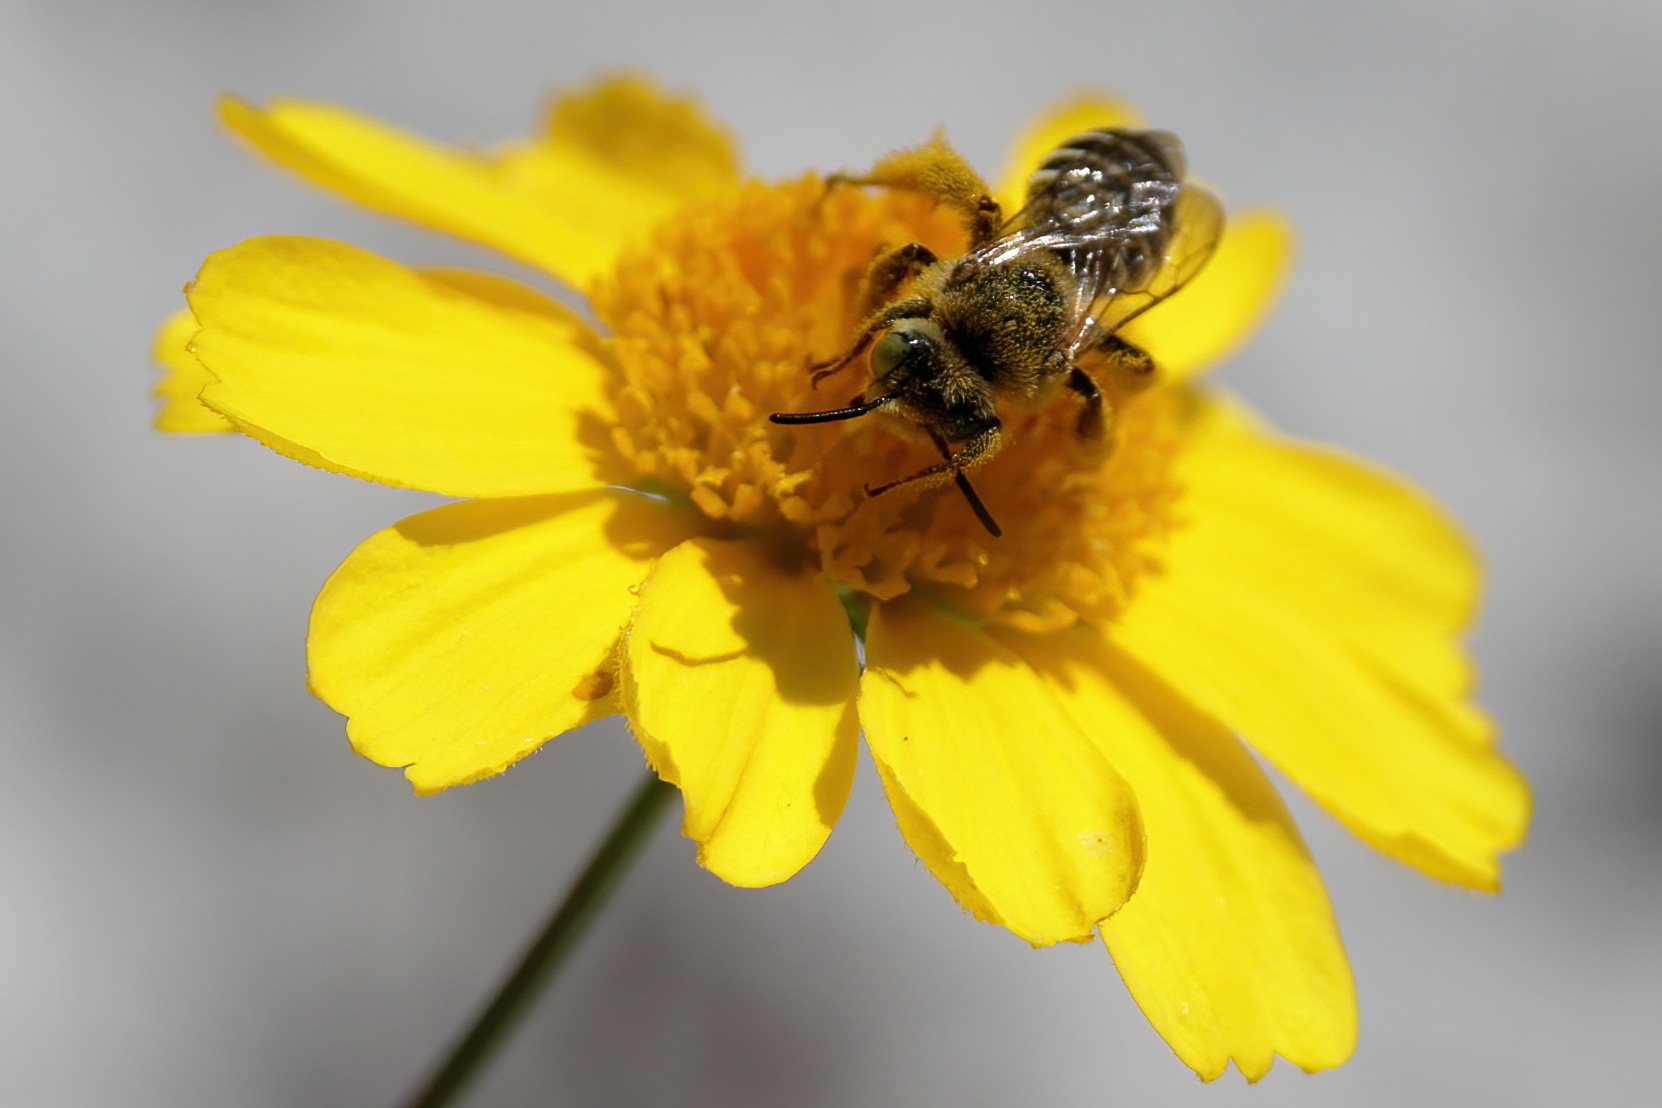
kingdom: Animalia
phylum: Arthropoda
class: Insecta
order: Hymenoptera
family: Melittidae
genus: Hesperapis
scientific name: Hesperapis oraria
